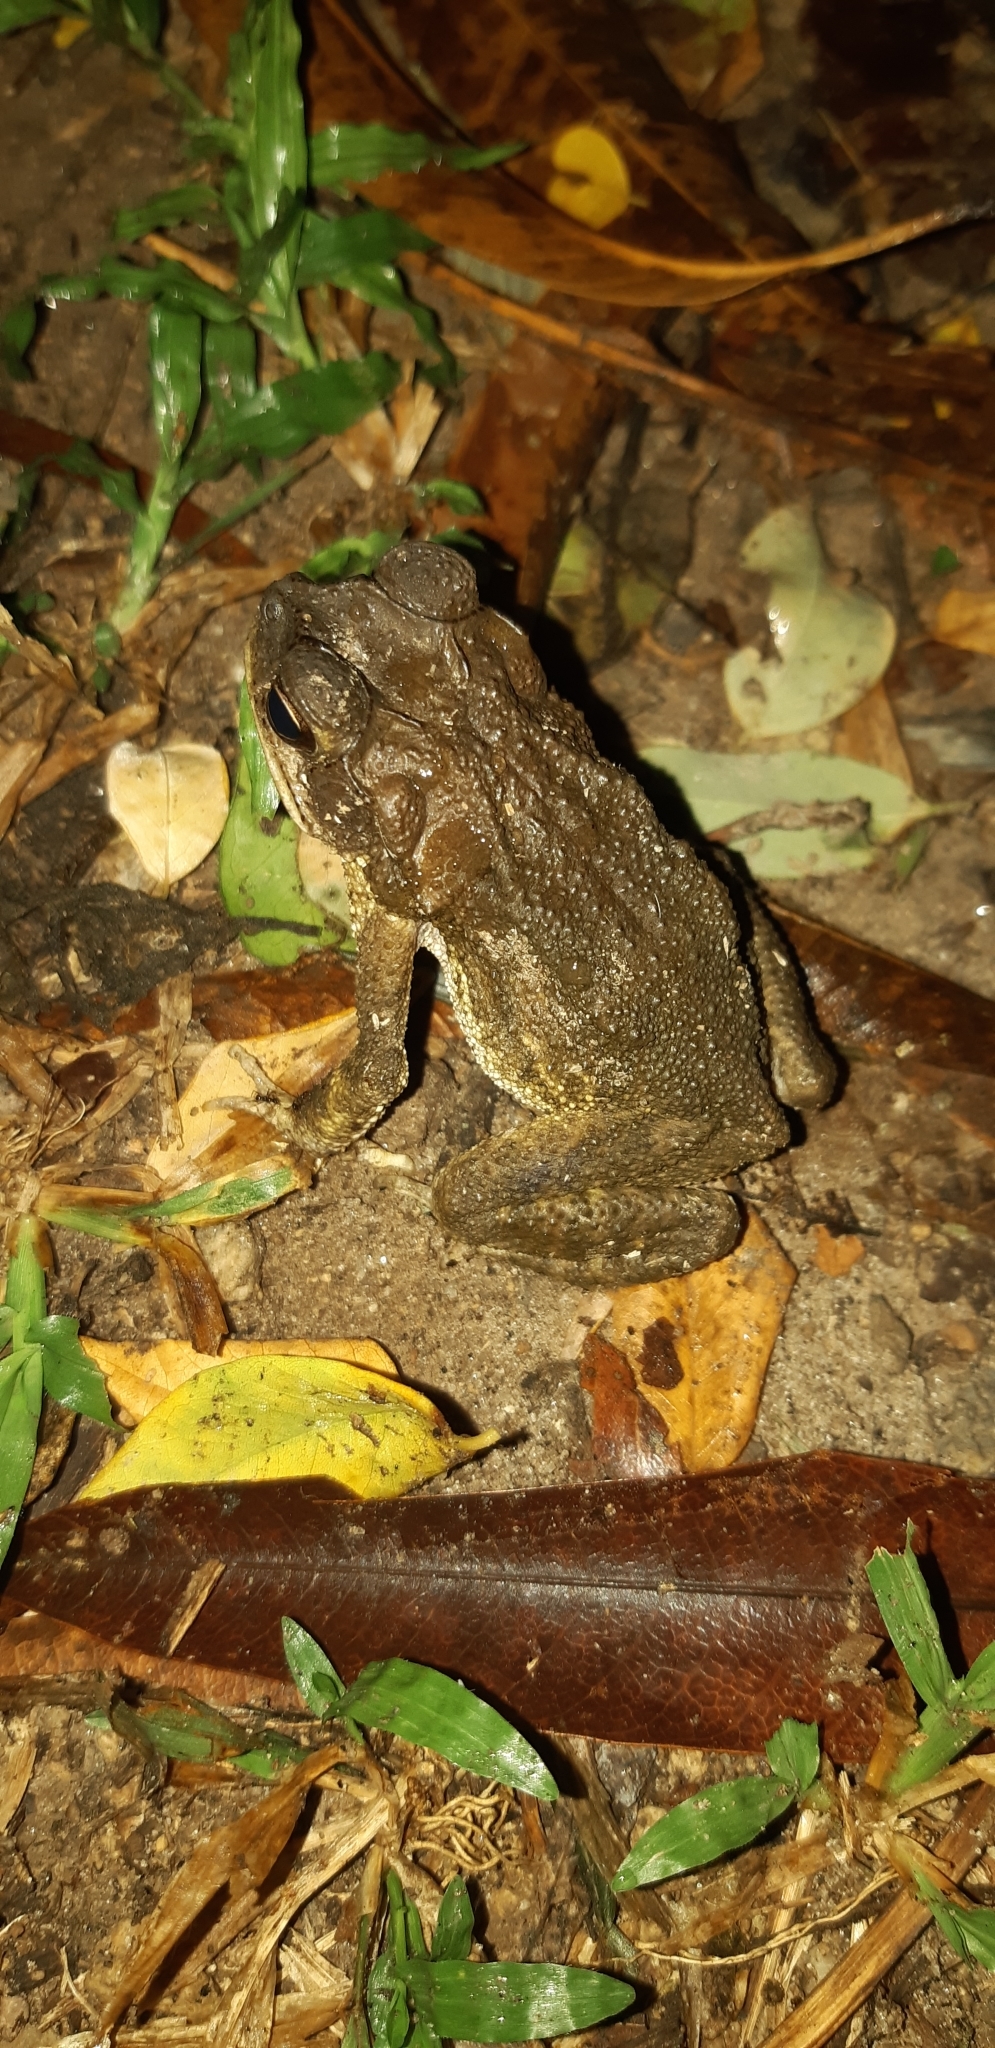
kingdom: Animalia
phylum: Chordata
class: Amphibia
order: Anura
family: Bufonidae
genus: Rhinella
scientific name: Rhinella horribilis
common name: Mesoamerican cane toad
